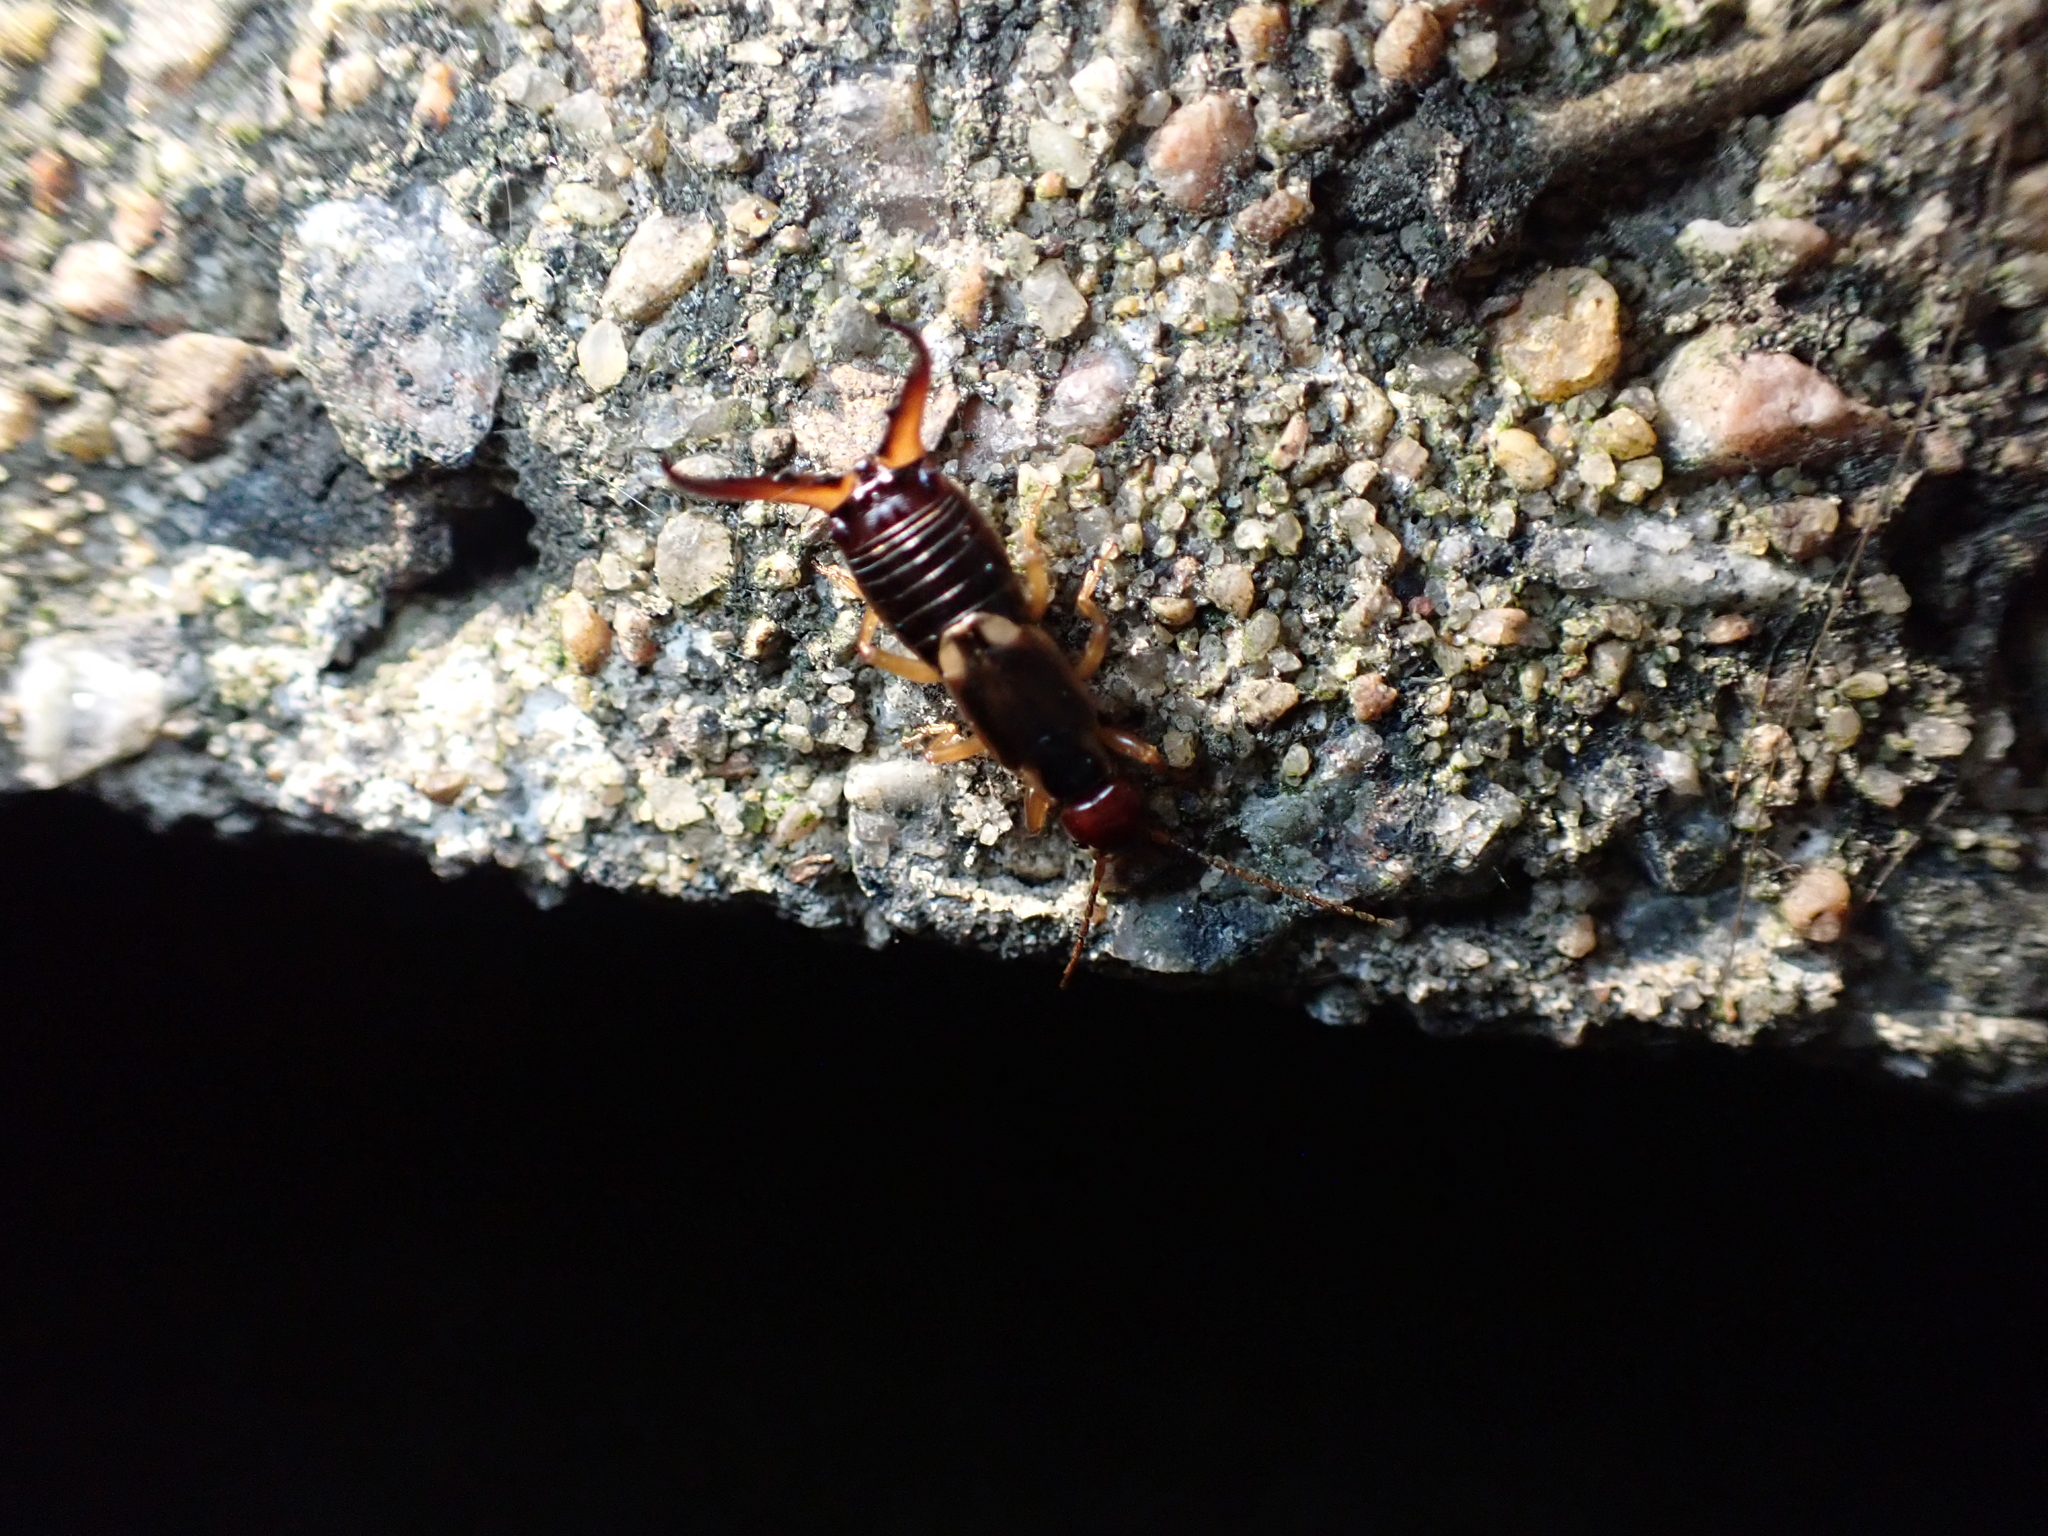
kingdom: Animalia
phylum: Arthropoda
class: Insecta
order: Dermaptera
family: Forficulidae
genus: Forficula
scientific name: Forficula
